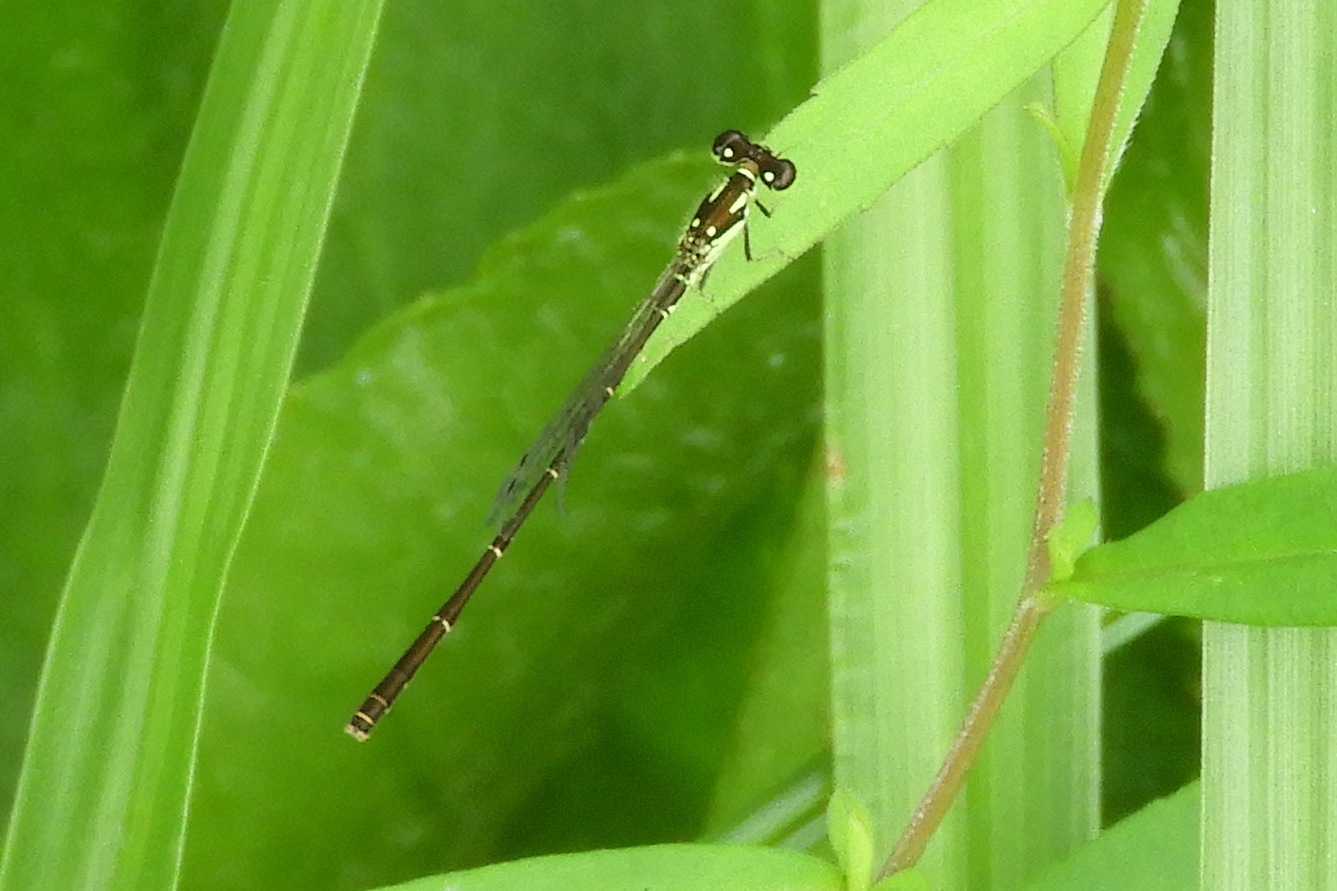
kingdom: Animalia
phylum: Arthropoda
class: Insecta
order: Odonata
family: Coenagrionidae
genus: Ischnura
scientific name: Ischnura posita
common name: Fragile forktail
